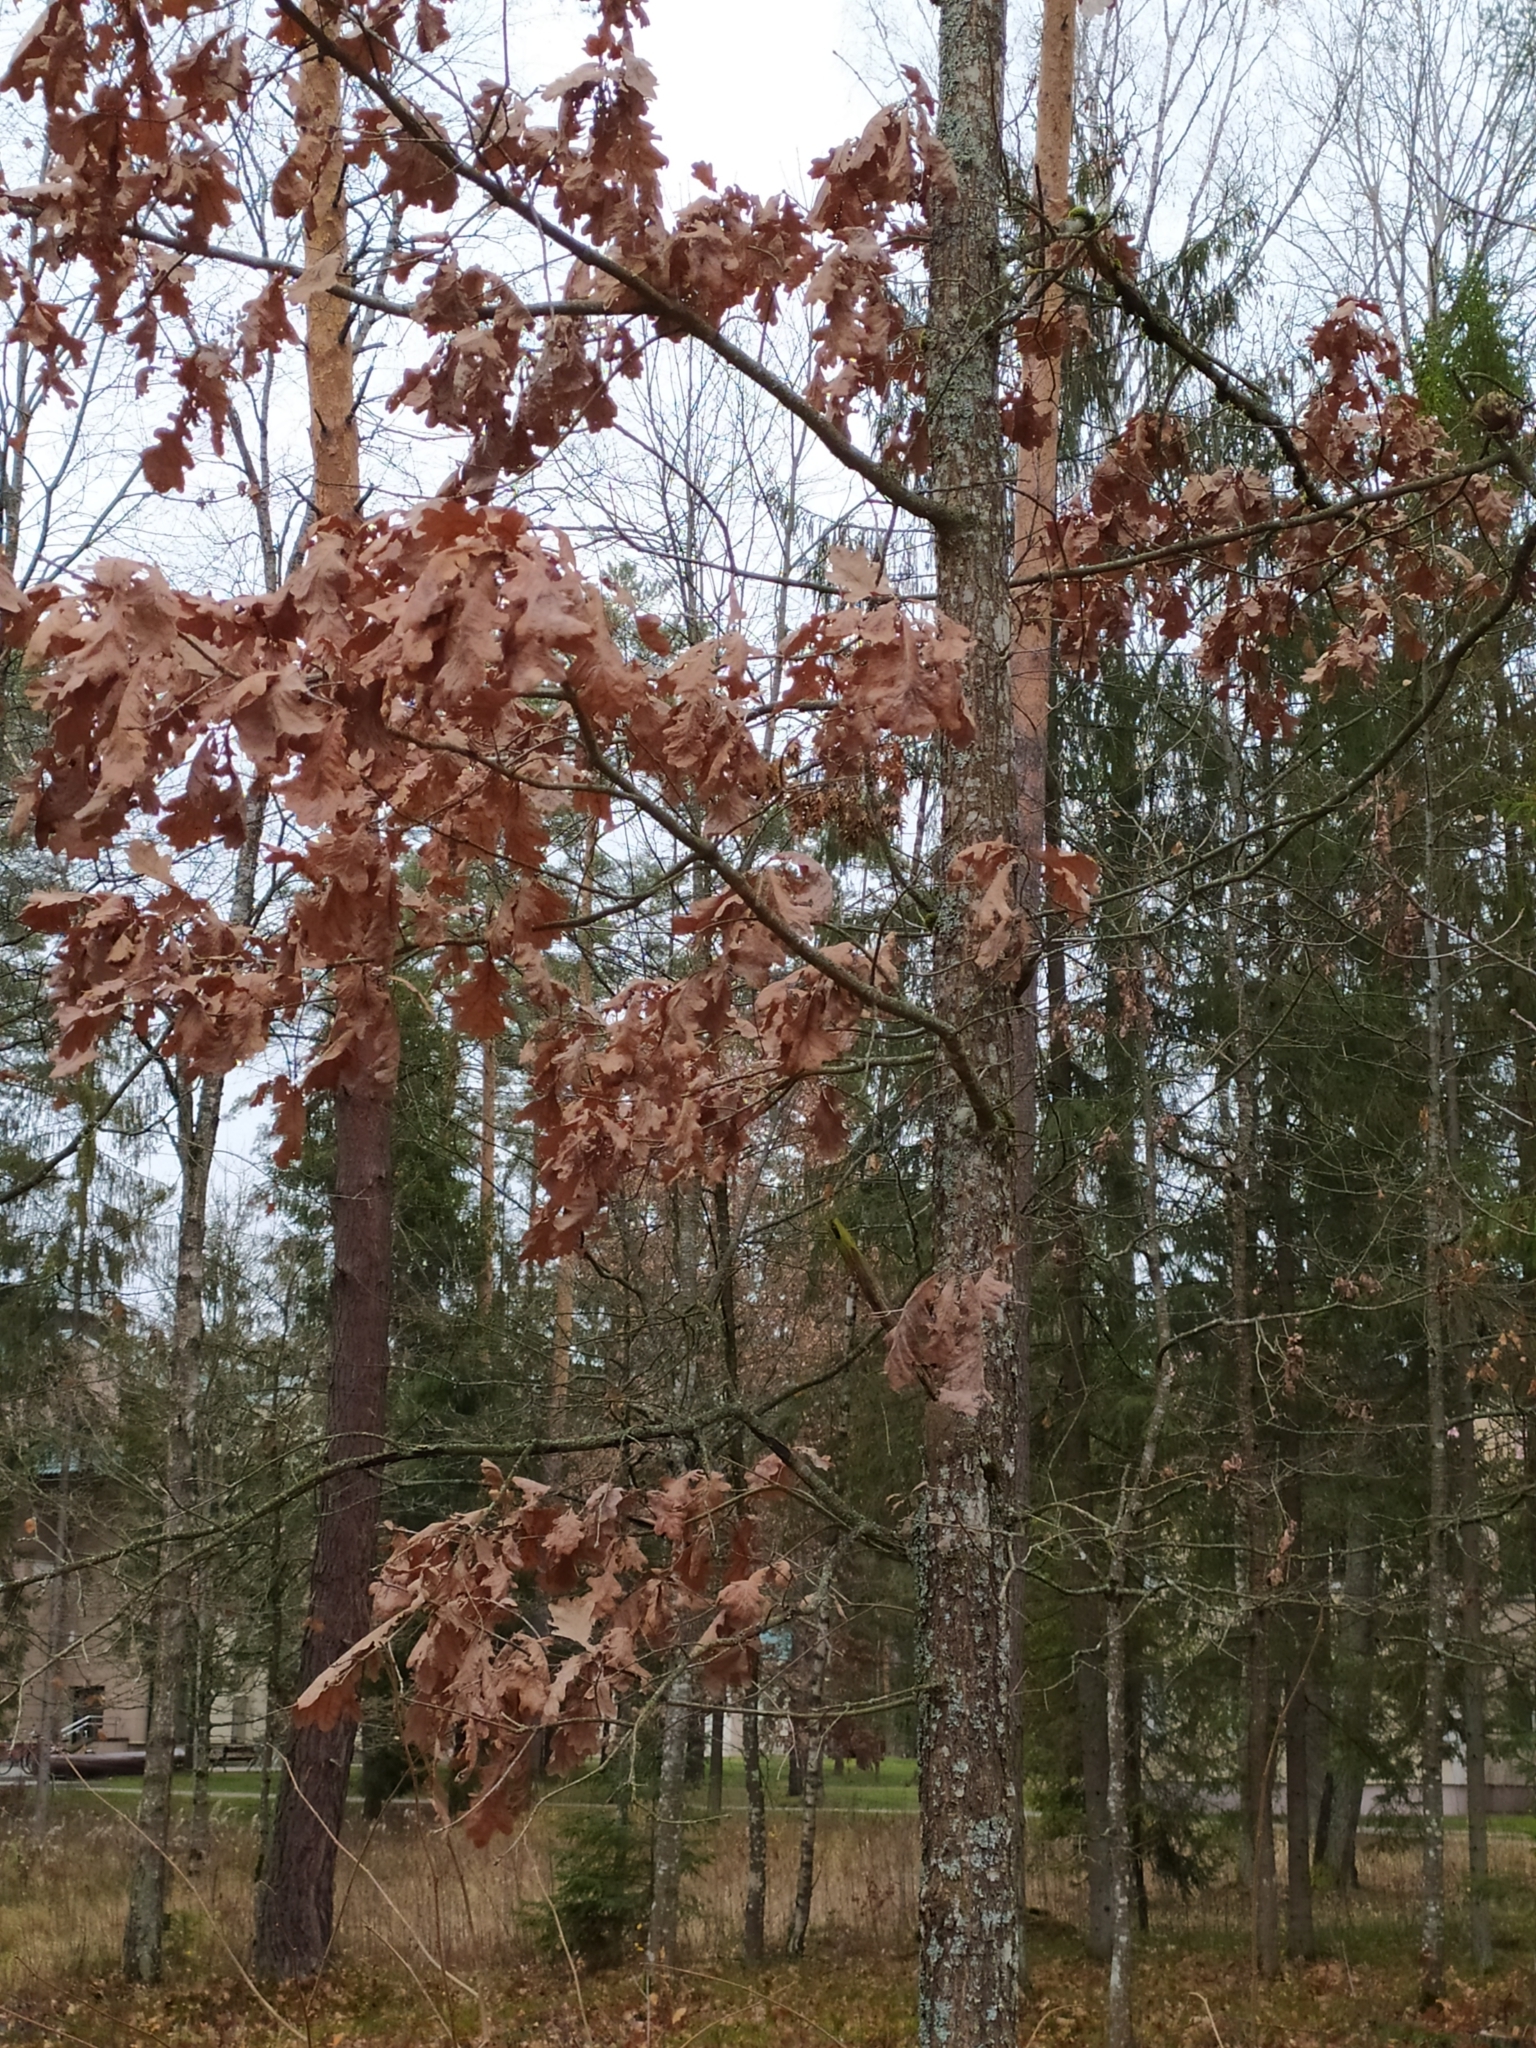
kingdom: Plantae
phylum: Tracheophyta
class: Magnoliopsida
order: Fagales
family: Fagaceae
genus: Quercus
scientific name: Quercus robur
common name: Pedunculate oak
